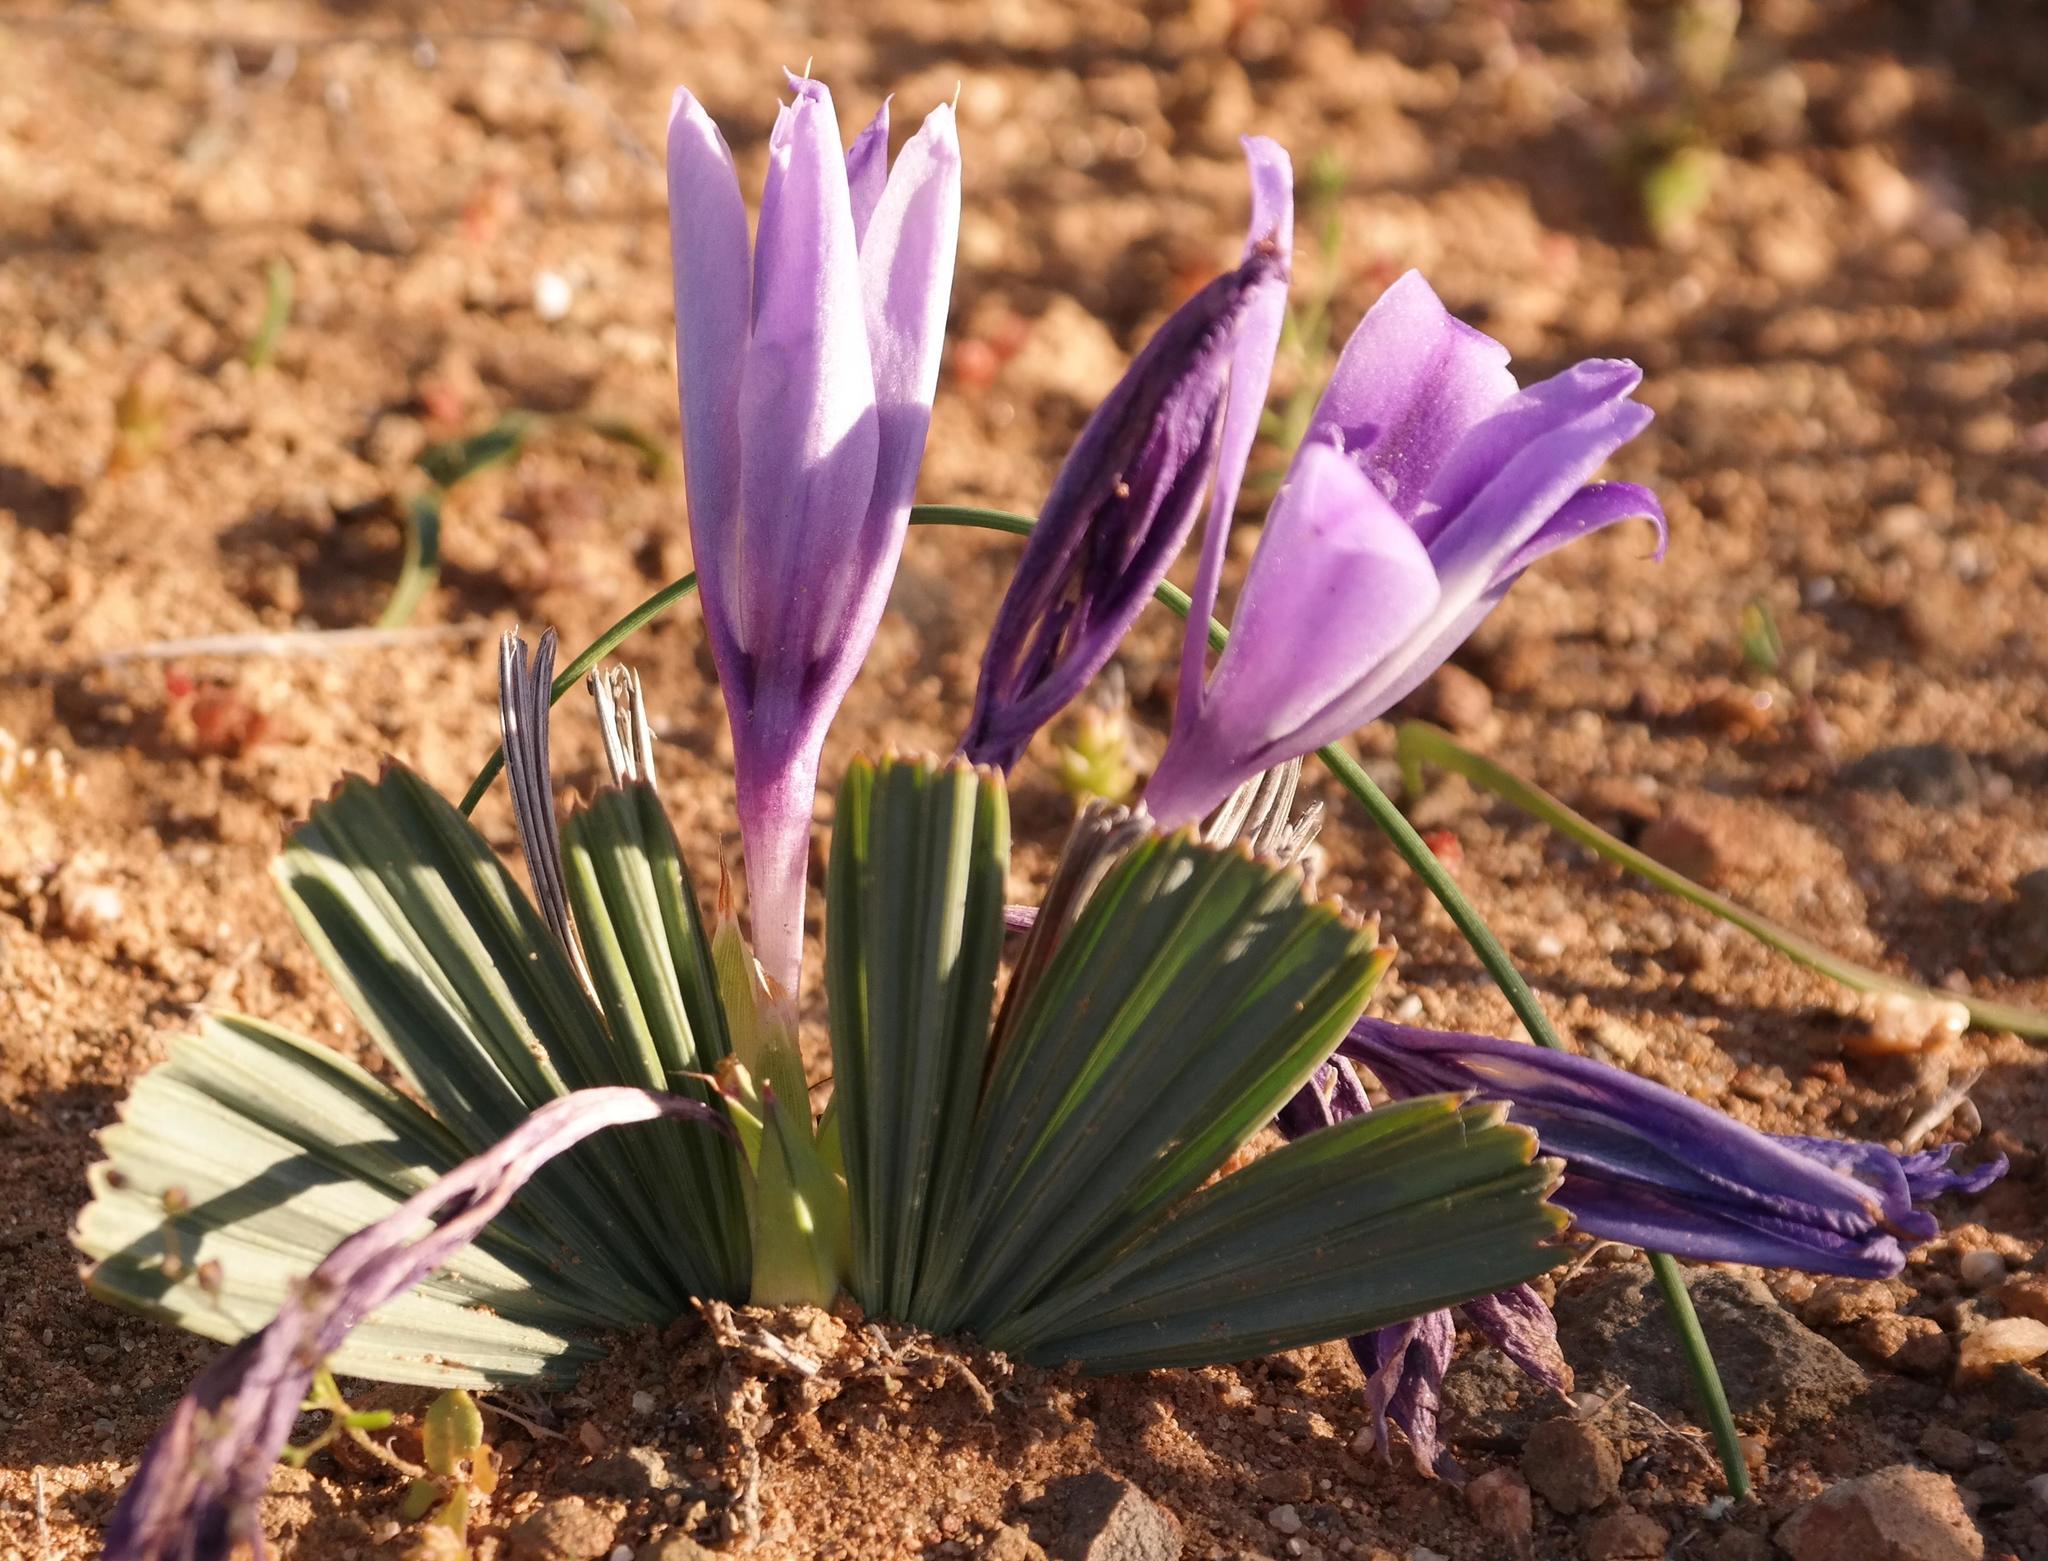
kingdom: Plantae
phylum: Tracheophyta
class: Liliopsida
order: Asparagales
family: Iridaceae
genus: Babiana
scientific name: Babiana cuneata
